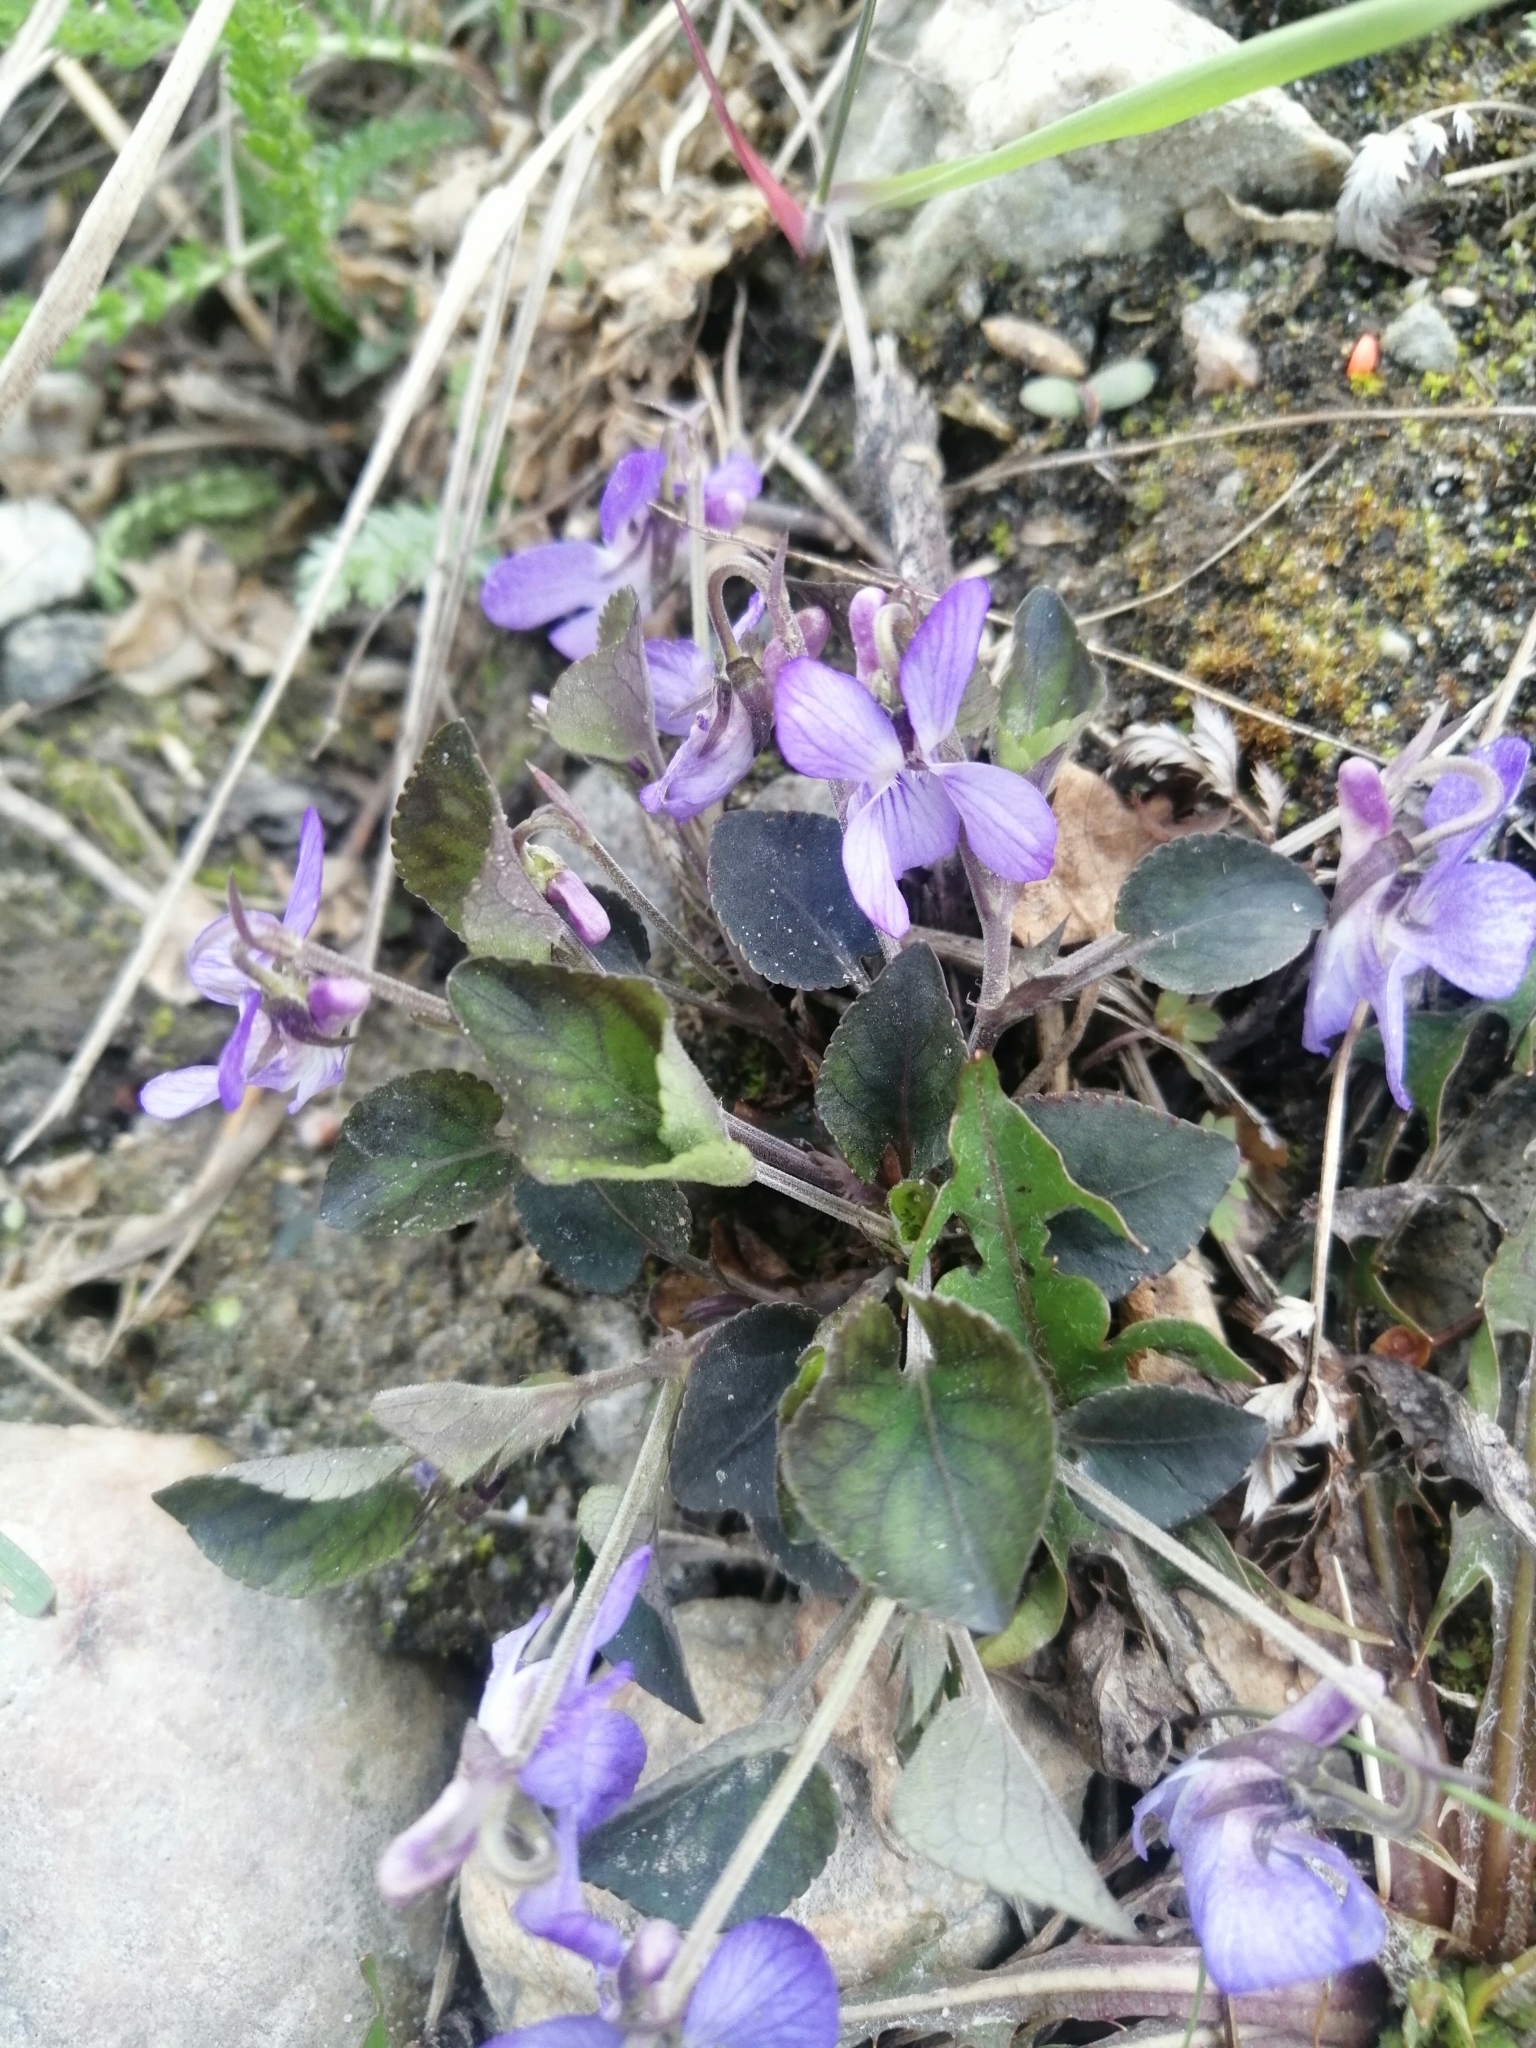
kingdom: Plantae
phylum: Tracheophyta
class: Magnoliopsida
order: Malpighiales
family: Violaceae
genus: Viola
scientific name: Viola rupestris
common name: Teesdale violet
